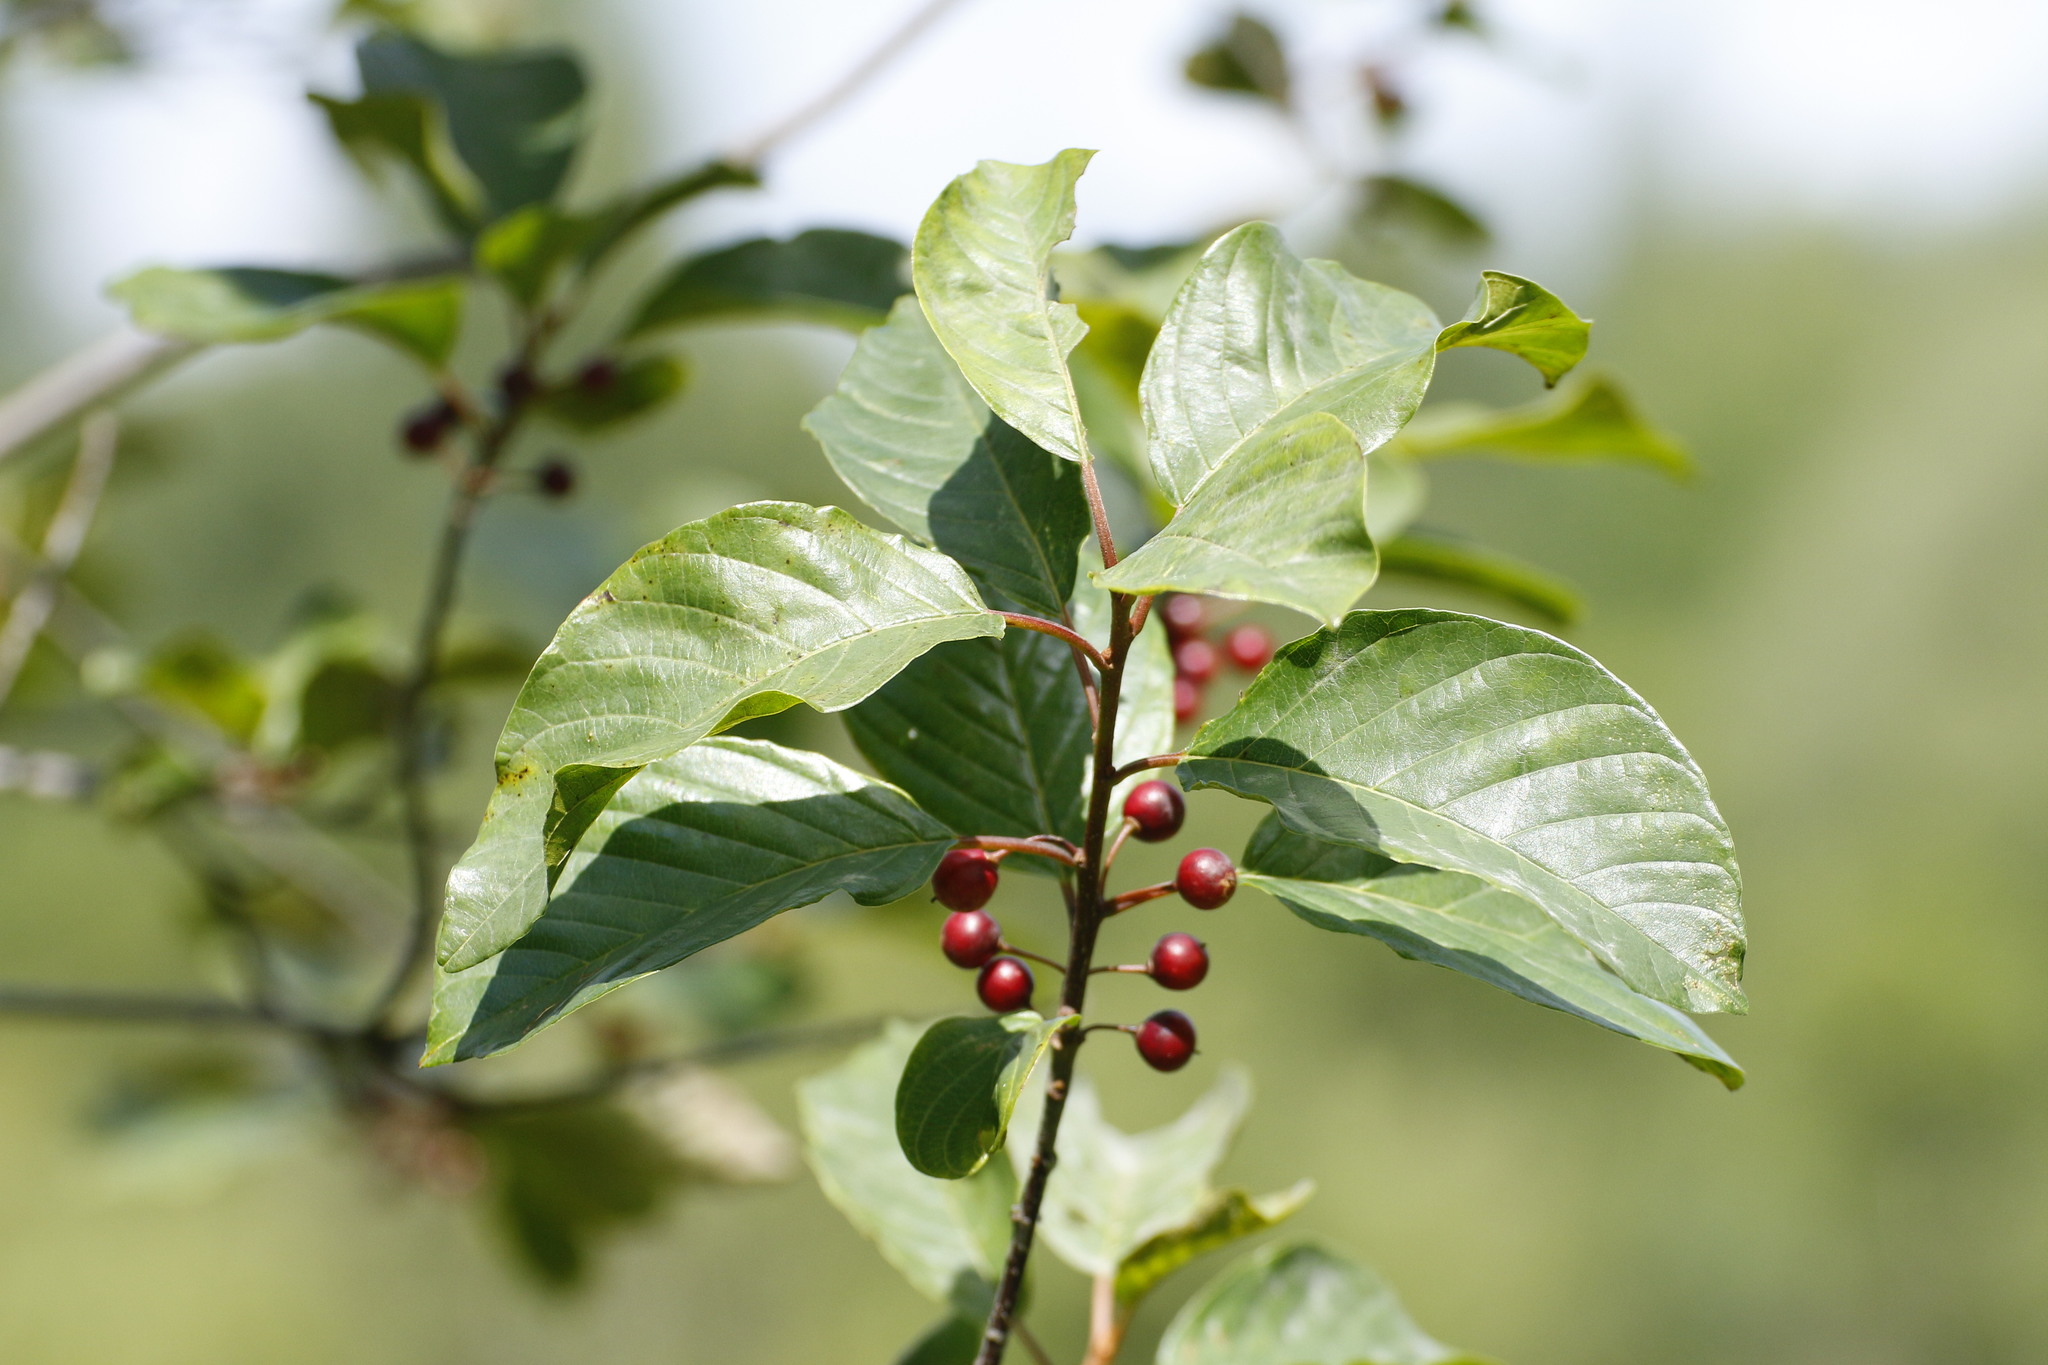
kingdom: Plantae
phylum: Tracheophyta
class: Magnoliopsida
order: Rosales
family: Rhamnaceae
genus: Frangula
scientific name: Frangula alnus
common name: Alder buckthorn
